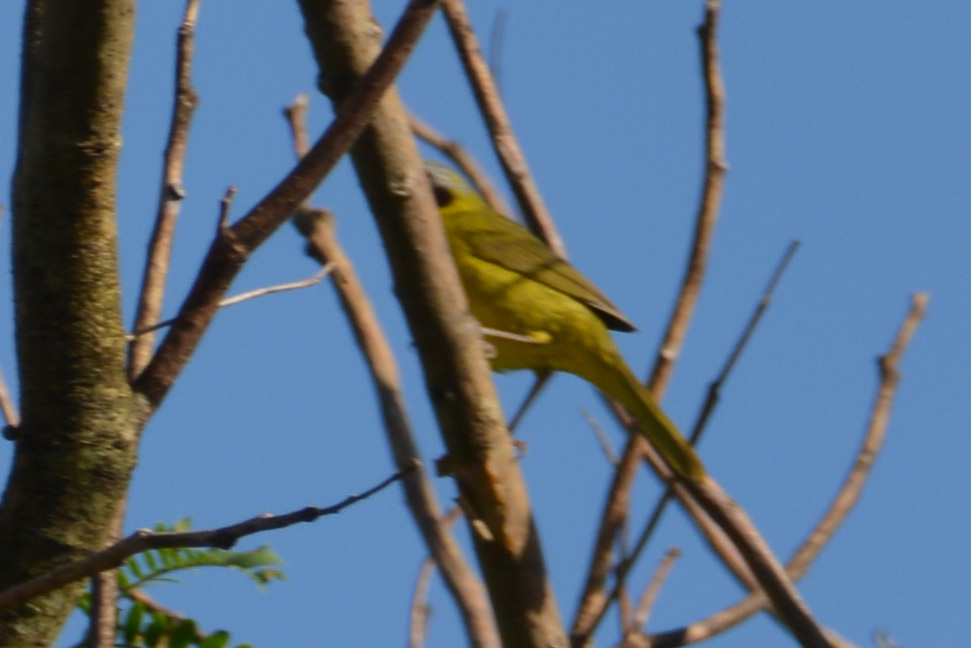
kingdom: Animalia
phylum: Chordata
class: Aves
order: Passeriformes
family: Parulidae
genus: Geothlypis
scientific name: Geothlypis velata
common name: Southern yellowthroat
